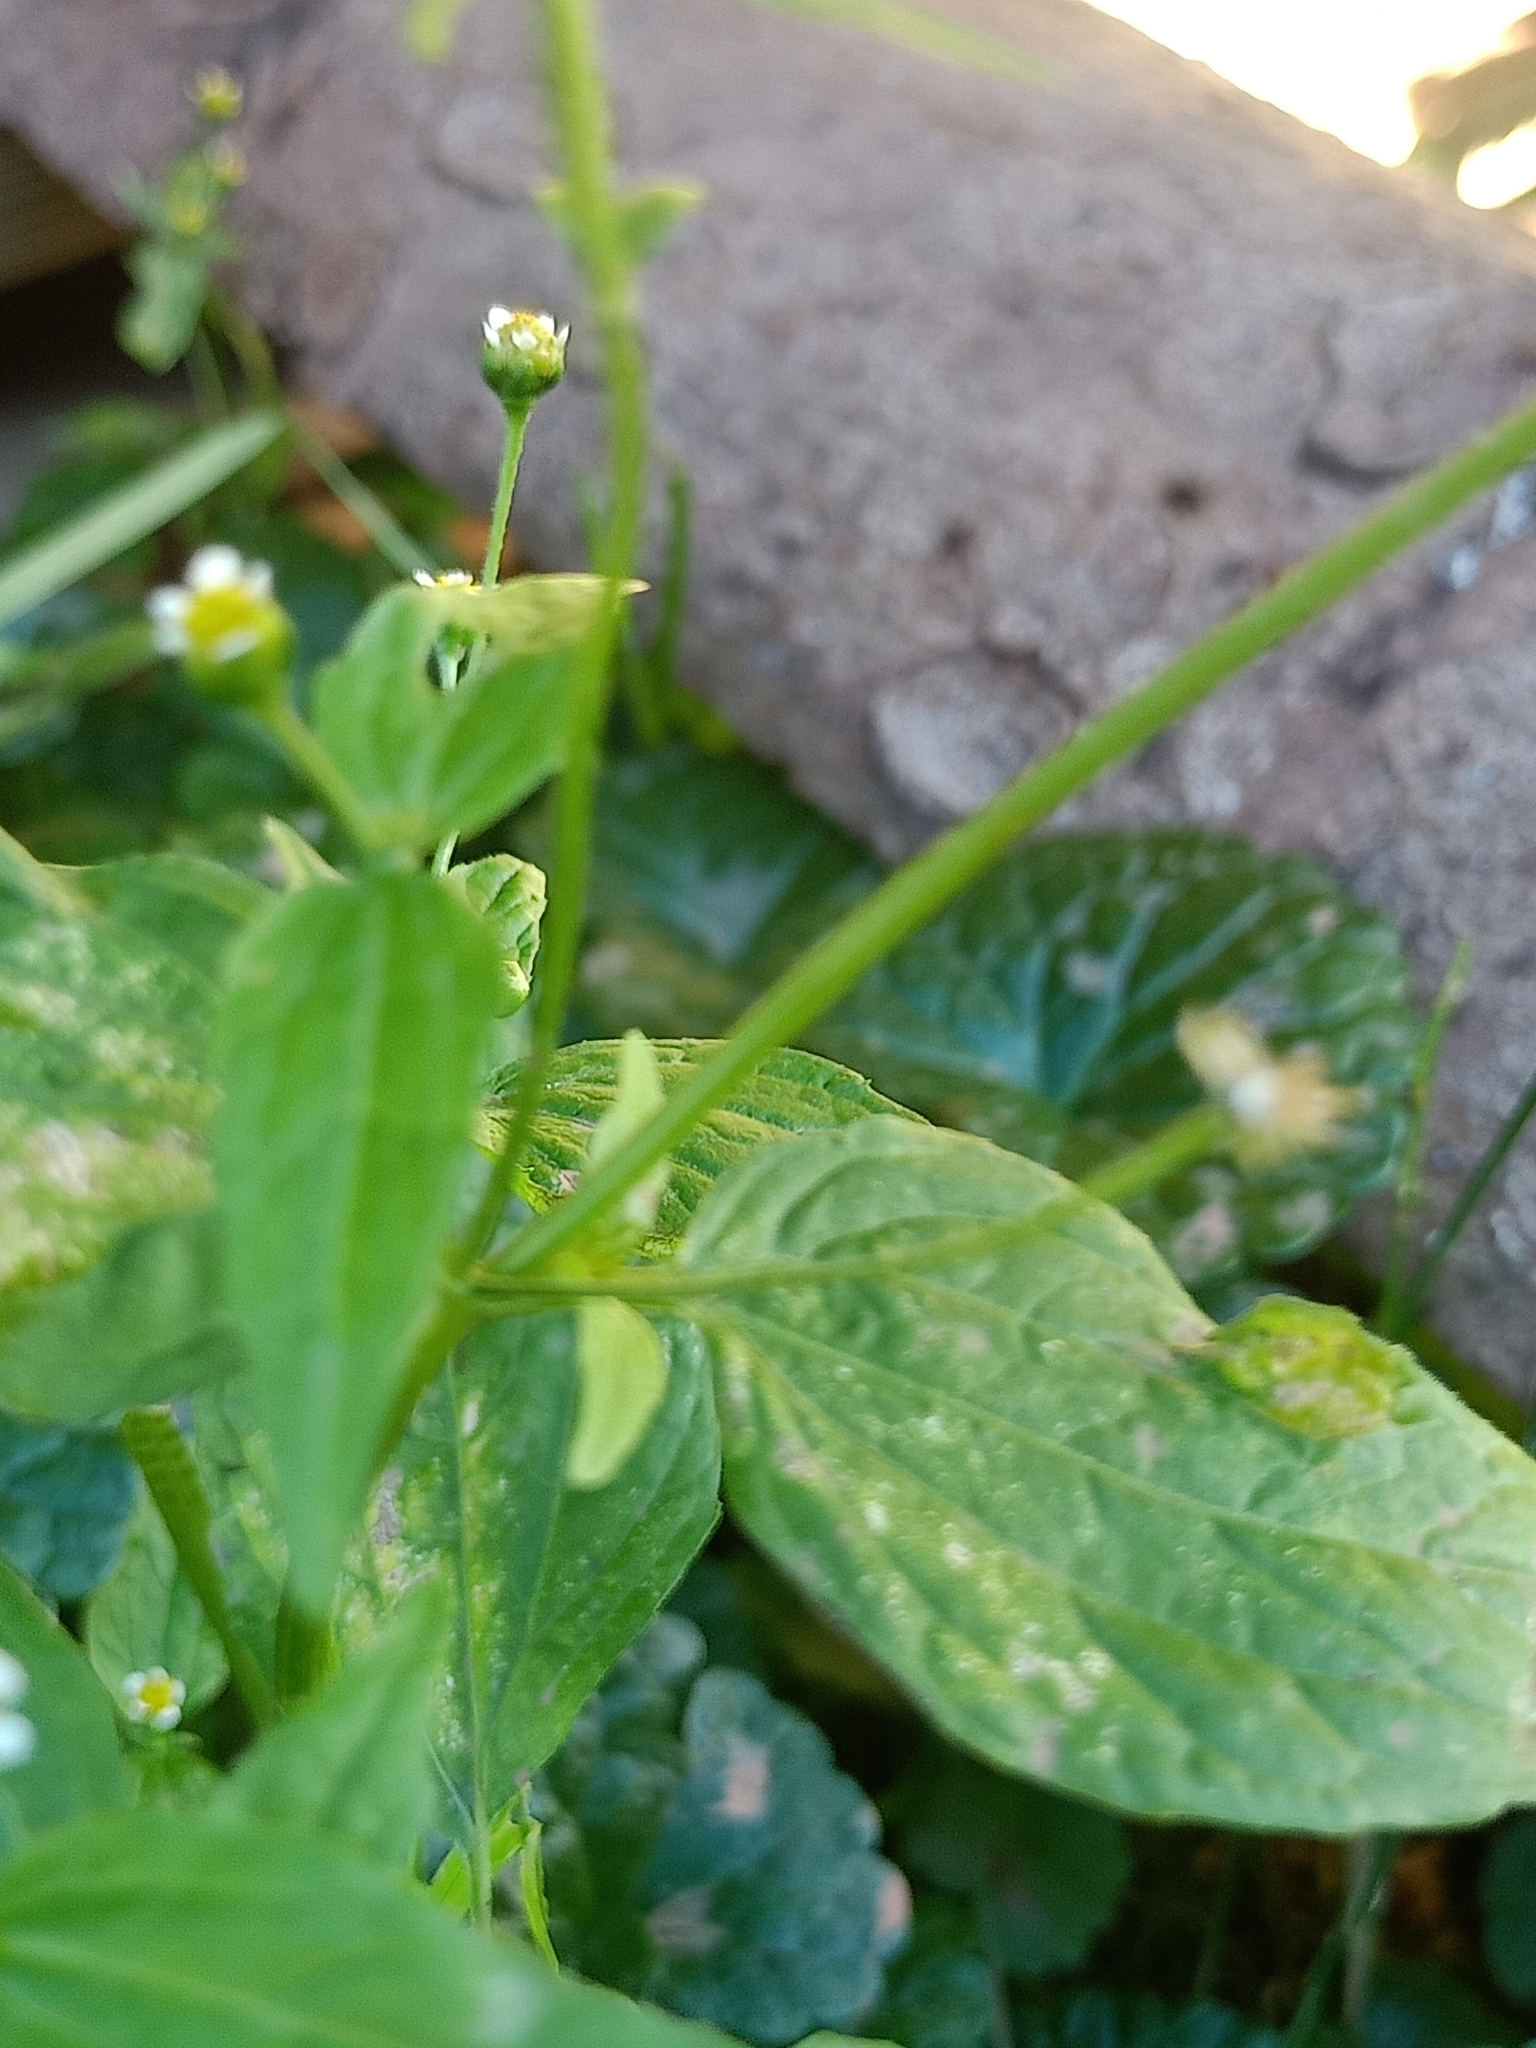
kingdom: Plantae
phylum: Tracheophyta
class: Magnoliopsida
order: Asterales
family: Asteraceae
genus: Galinsoga
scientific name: Galinsoga parviflora
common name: Gallant soldier
